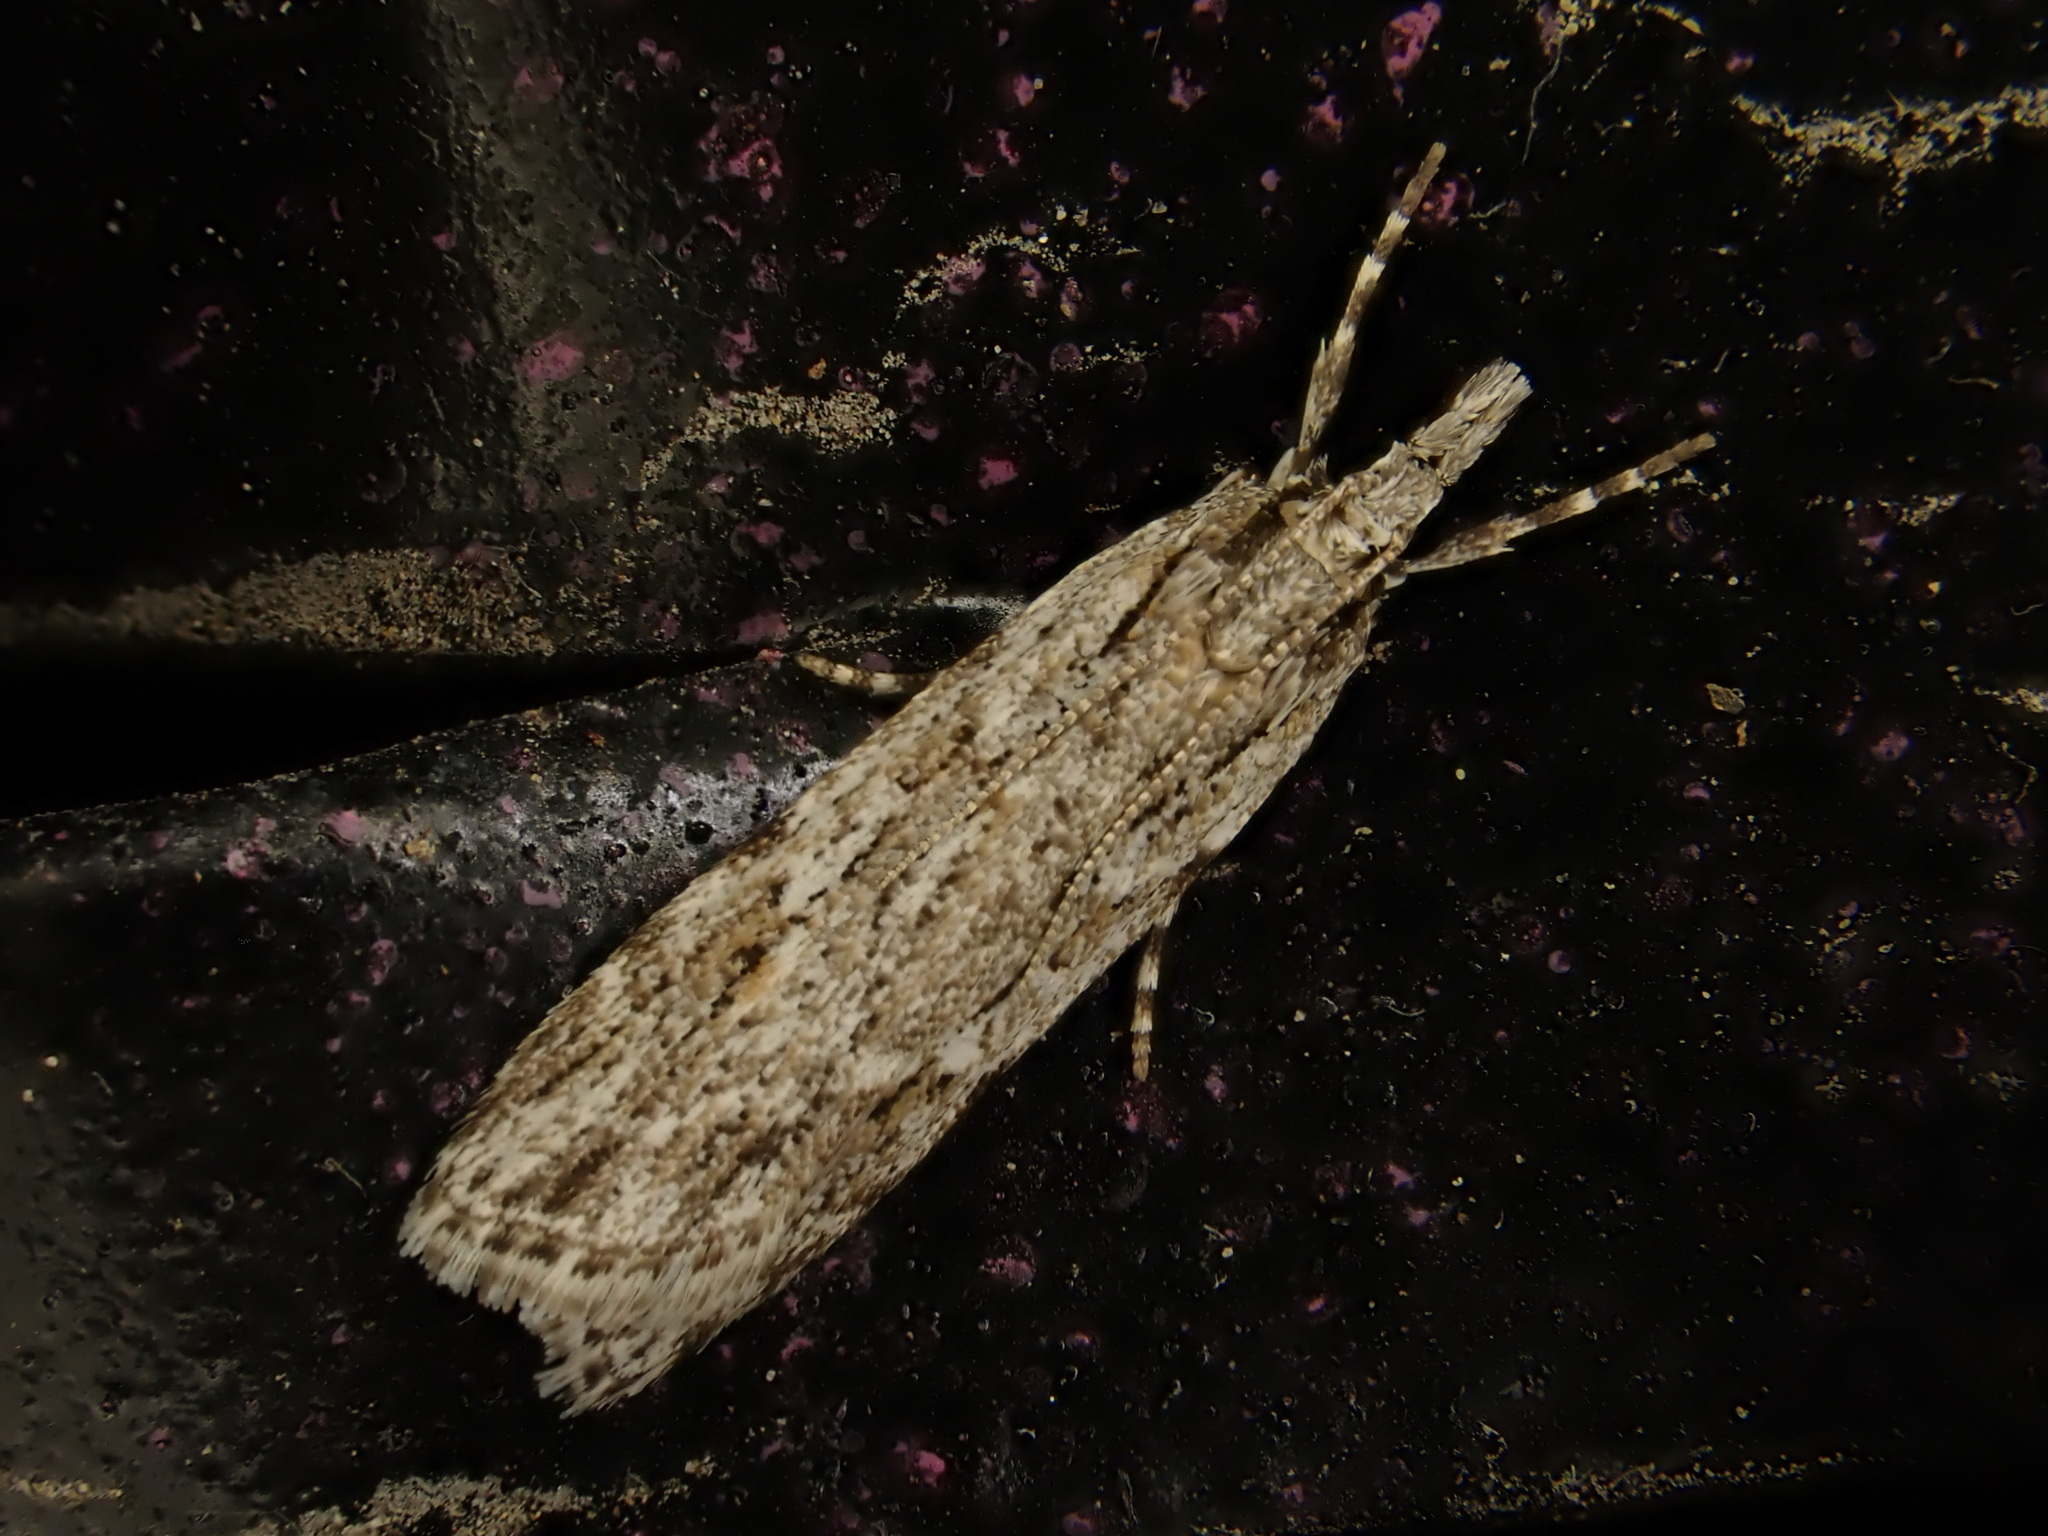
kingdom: Animalia
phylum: Arthropoda
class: Insecta
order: Lepidoptera
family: Crambidae
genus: Scoparia
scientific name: Scoparia chalicodes
